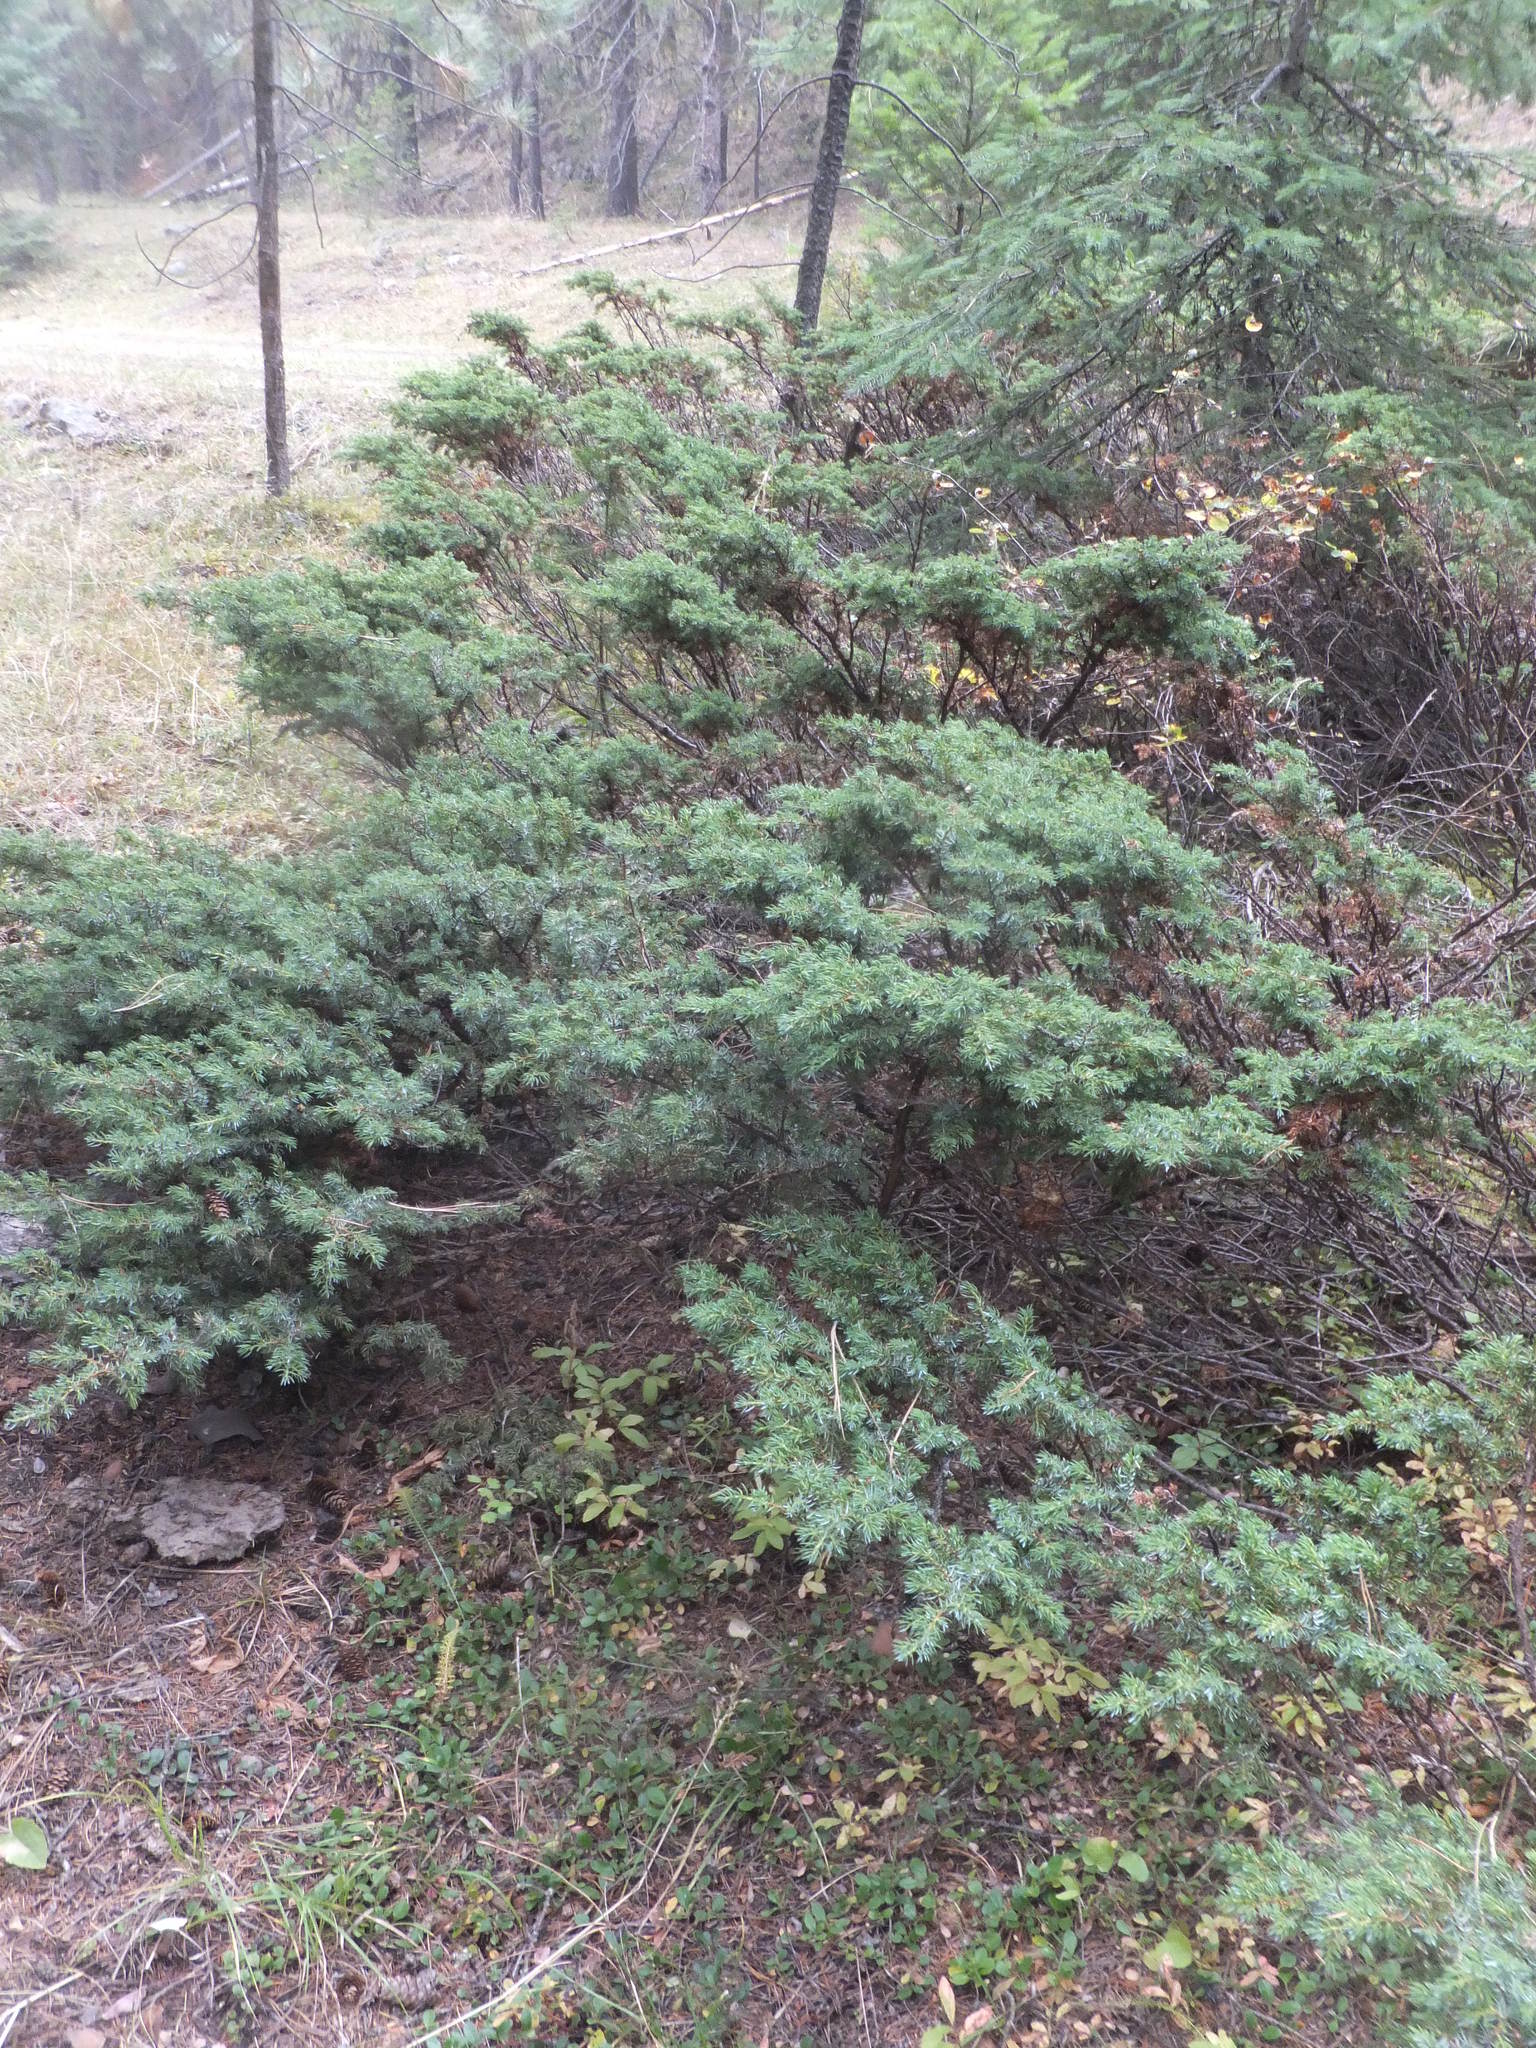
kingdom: Plantae
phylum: Tracheophyta
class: Pinopsida
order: Pinales
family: Cupressaceae
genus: Juniperus
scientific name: Juniperus communis
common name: Common juniper
